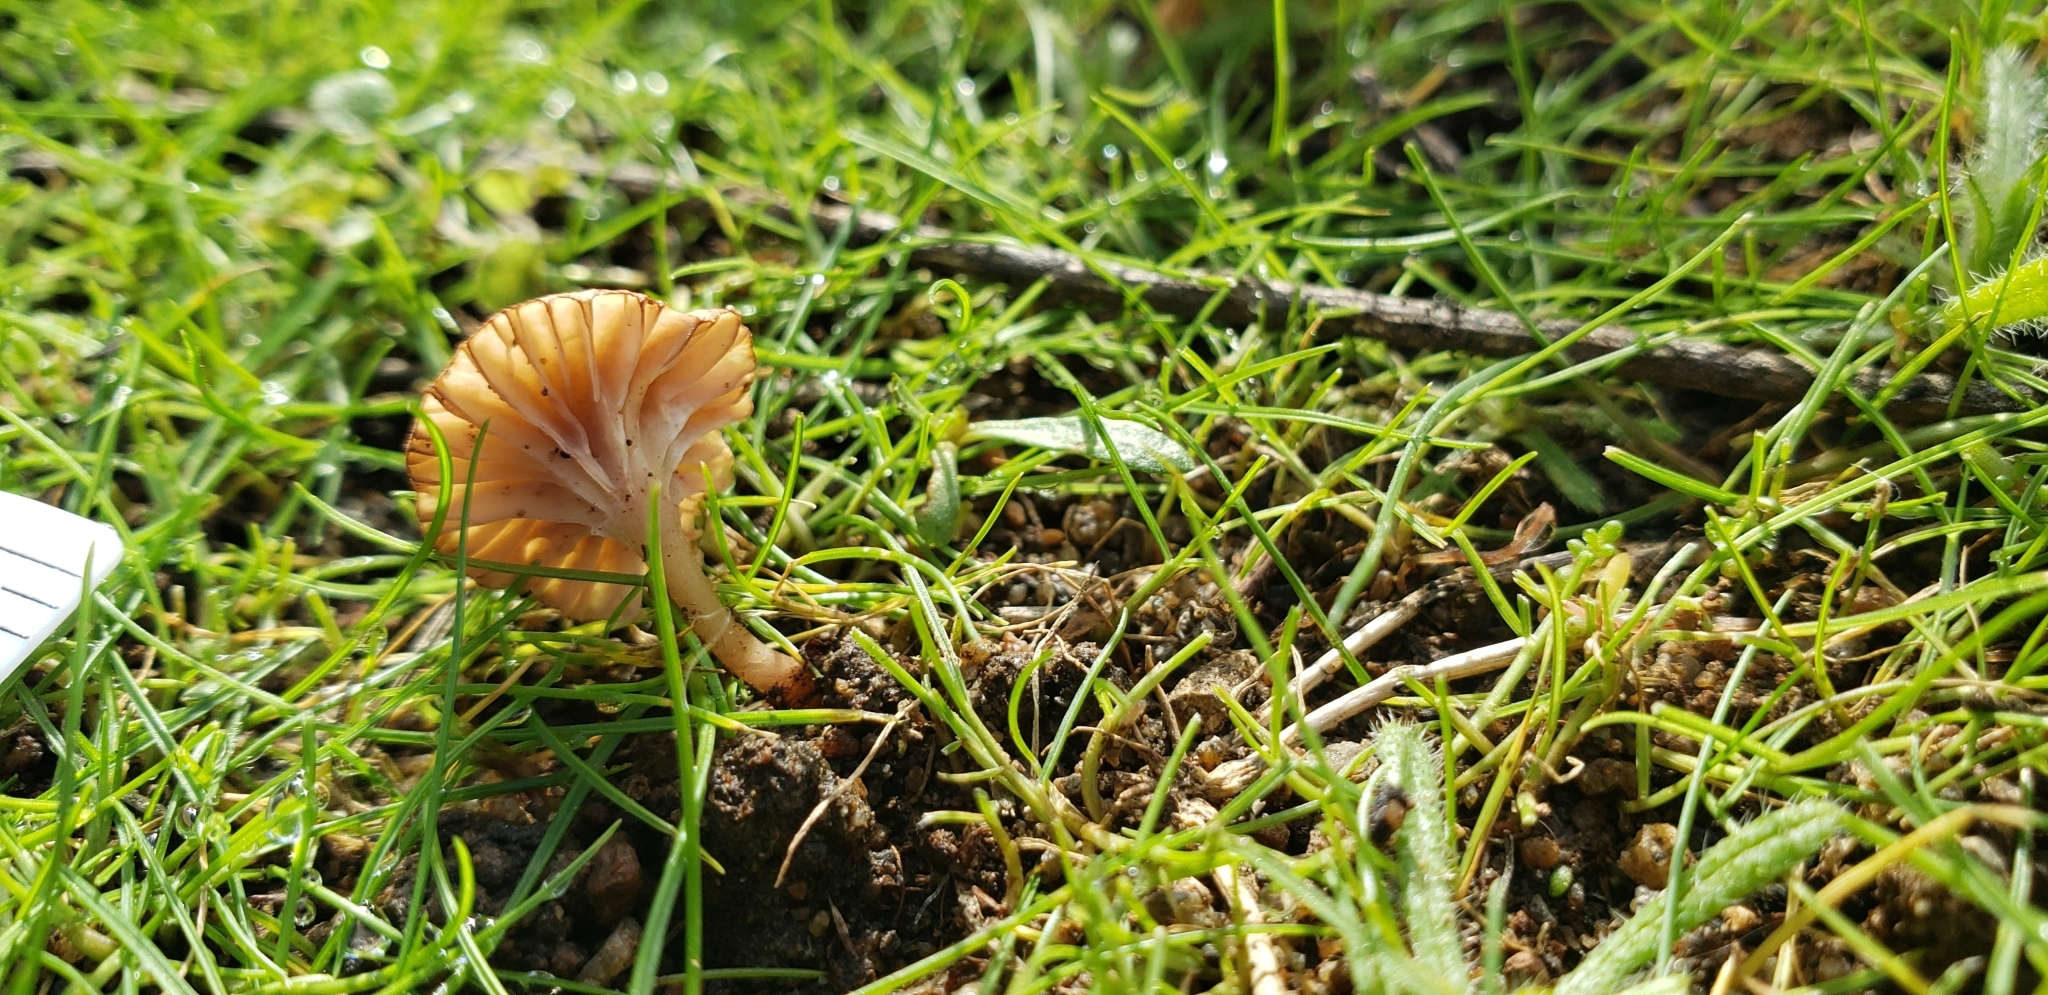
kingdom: Fungi
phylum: Basidiomycota
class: Agaricomycetes
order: Hymenochaetales
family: Rickenellaceae
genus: Contumyces
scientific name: Contumyces rosellus
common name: Rosy navel
